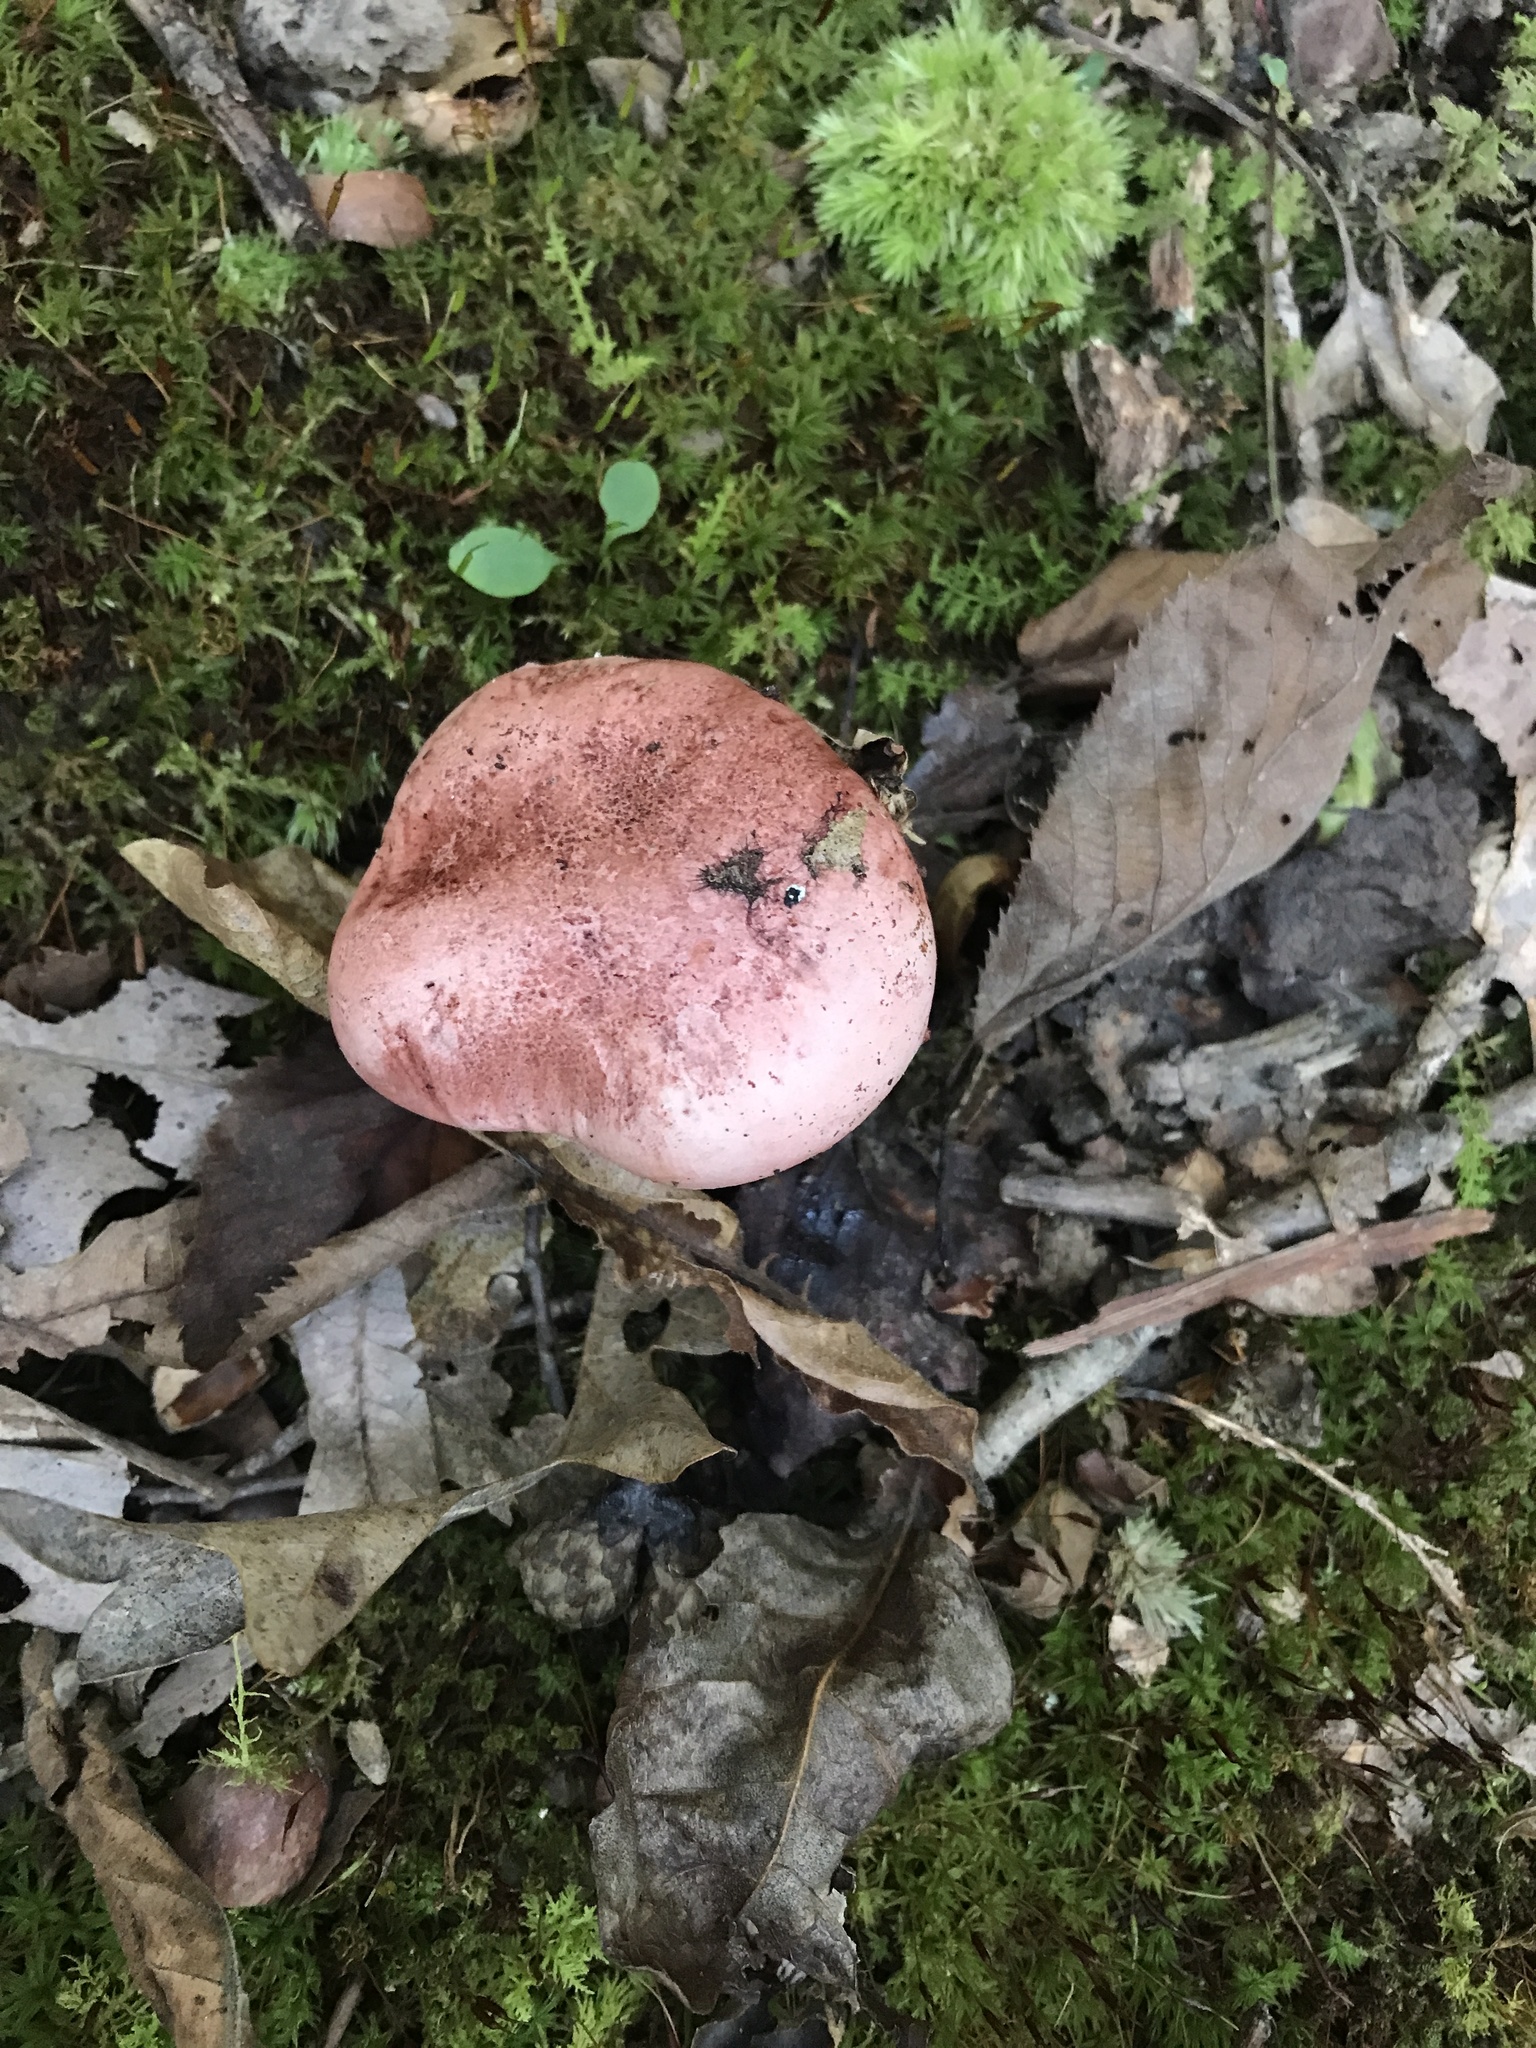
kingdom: Fungi
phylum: Basidiomycota
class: Agaricomycetes
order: Agaricales
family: Hygrophoraceae
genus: Hygrophorus
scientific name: Hygrophorus russula
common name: Pinkmottle woodwax
